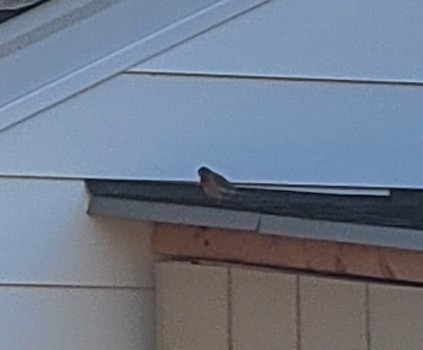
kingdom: Animalia
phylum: Chordata
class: Aves
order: Passeriformes
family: Fringillidae
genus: Haemorhous
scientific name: Haemorhous mexicanus
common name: House finch
